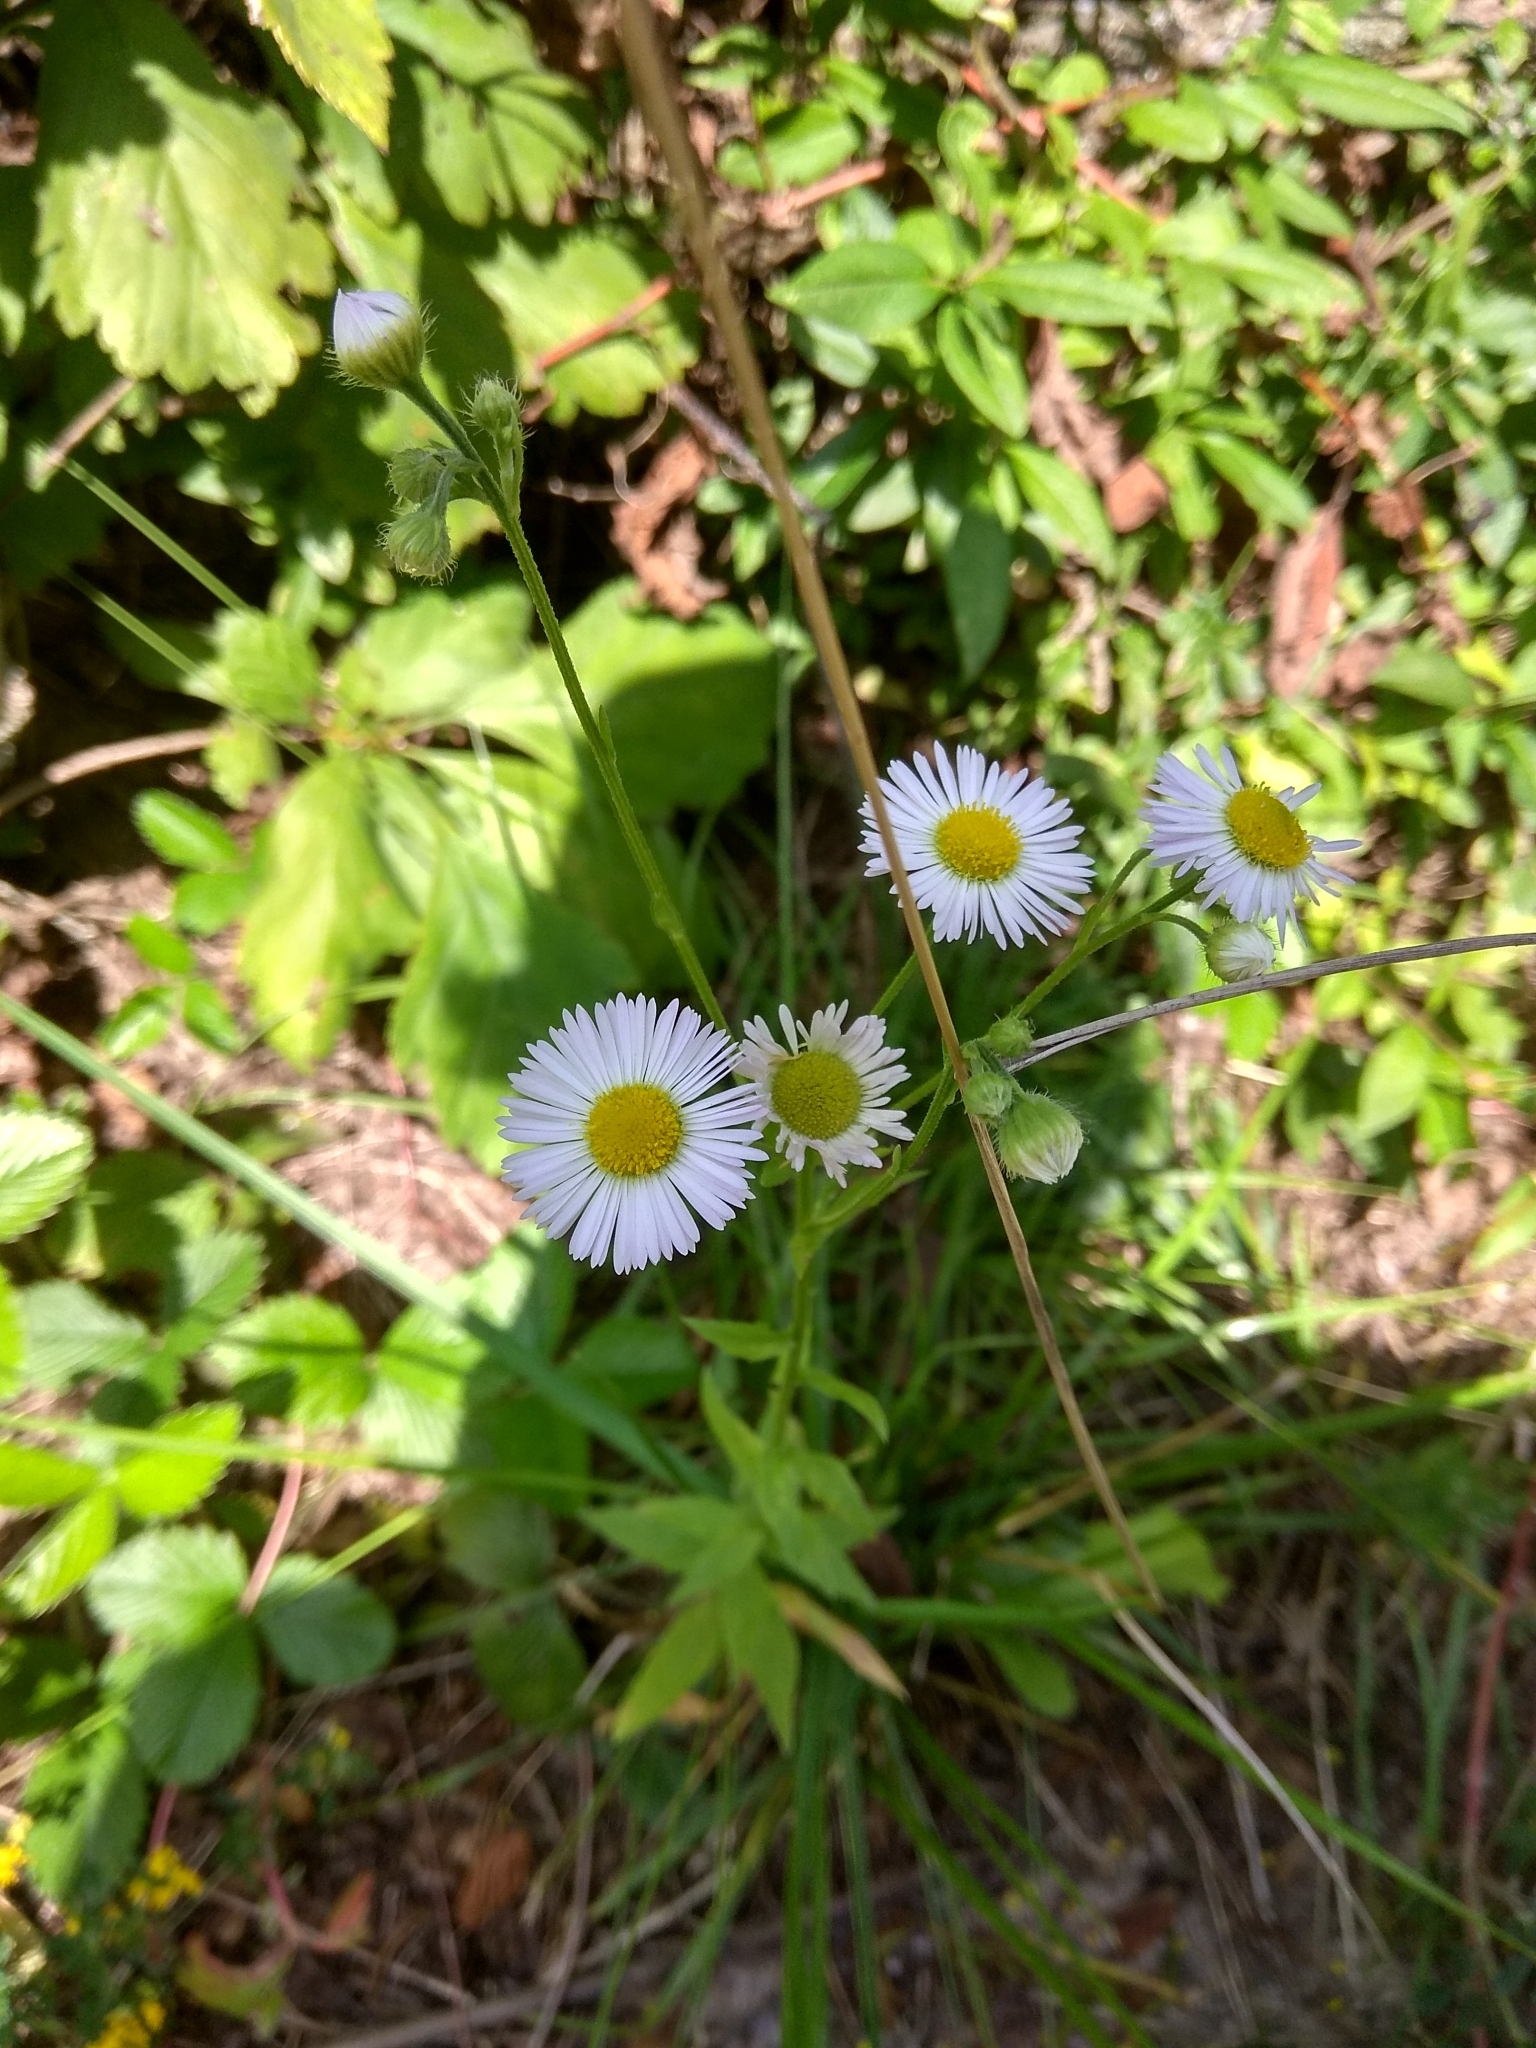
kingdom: Plantae
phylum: Tracheophyta
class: Magnoliopsida
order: Asterales
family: Asteraceae
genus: Erigeron
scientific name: Erigeron annuus
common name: Tall fleabane
